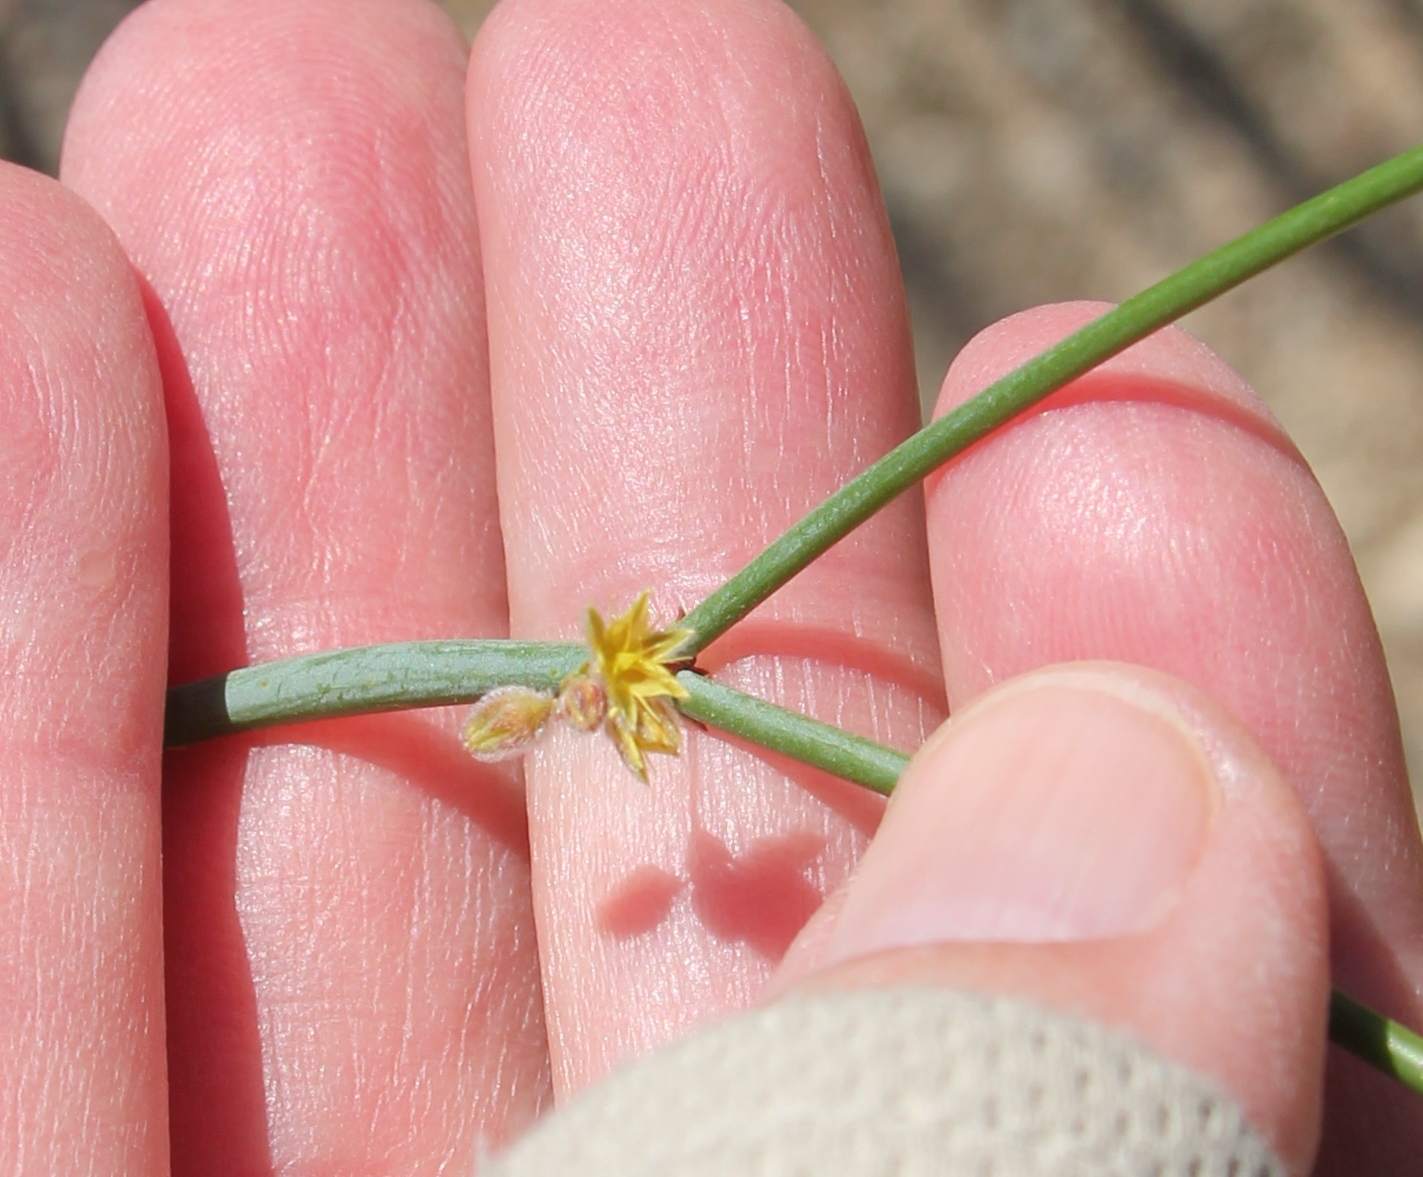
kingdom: Plantae
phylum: Tracheophyta
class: Magnoliopsida
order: Caryophyllales
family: Polygonaceae
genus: Eriogonum
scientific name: Eriogonum inflatum
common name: Desert trumpet
